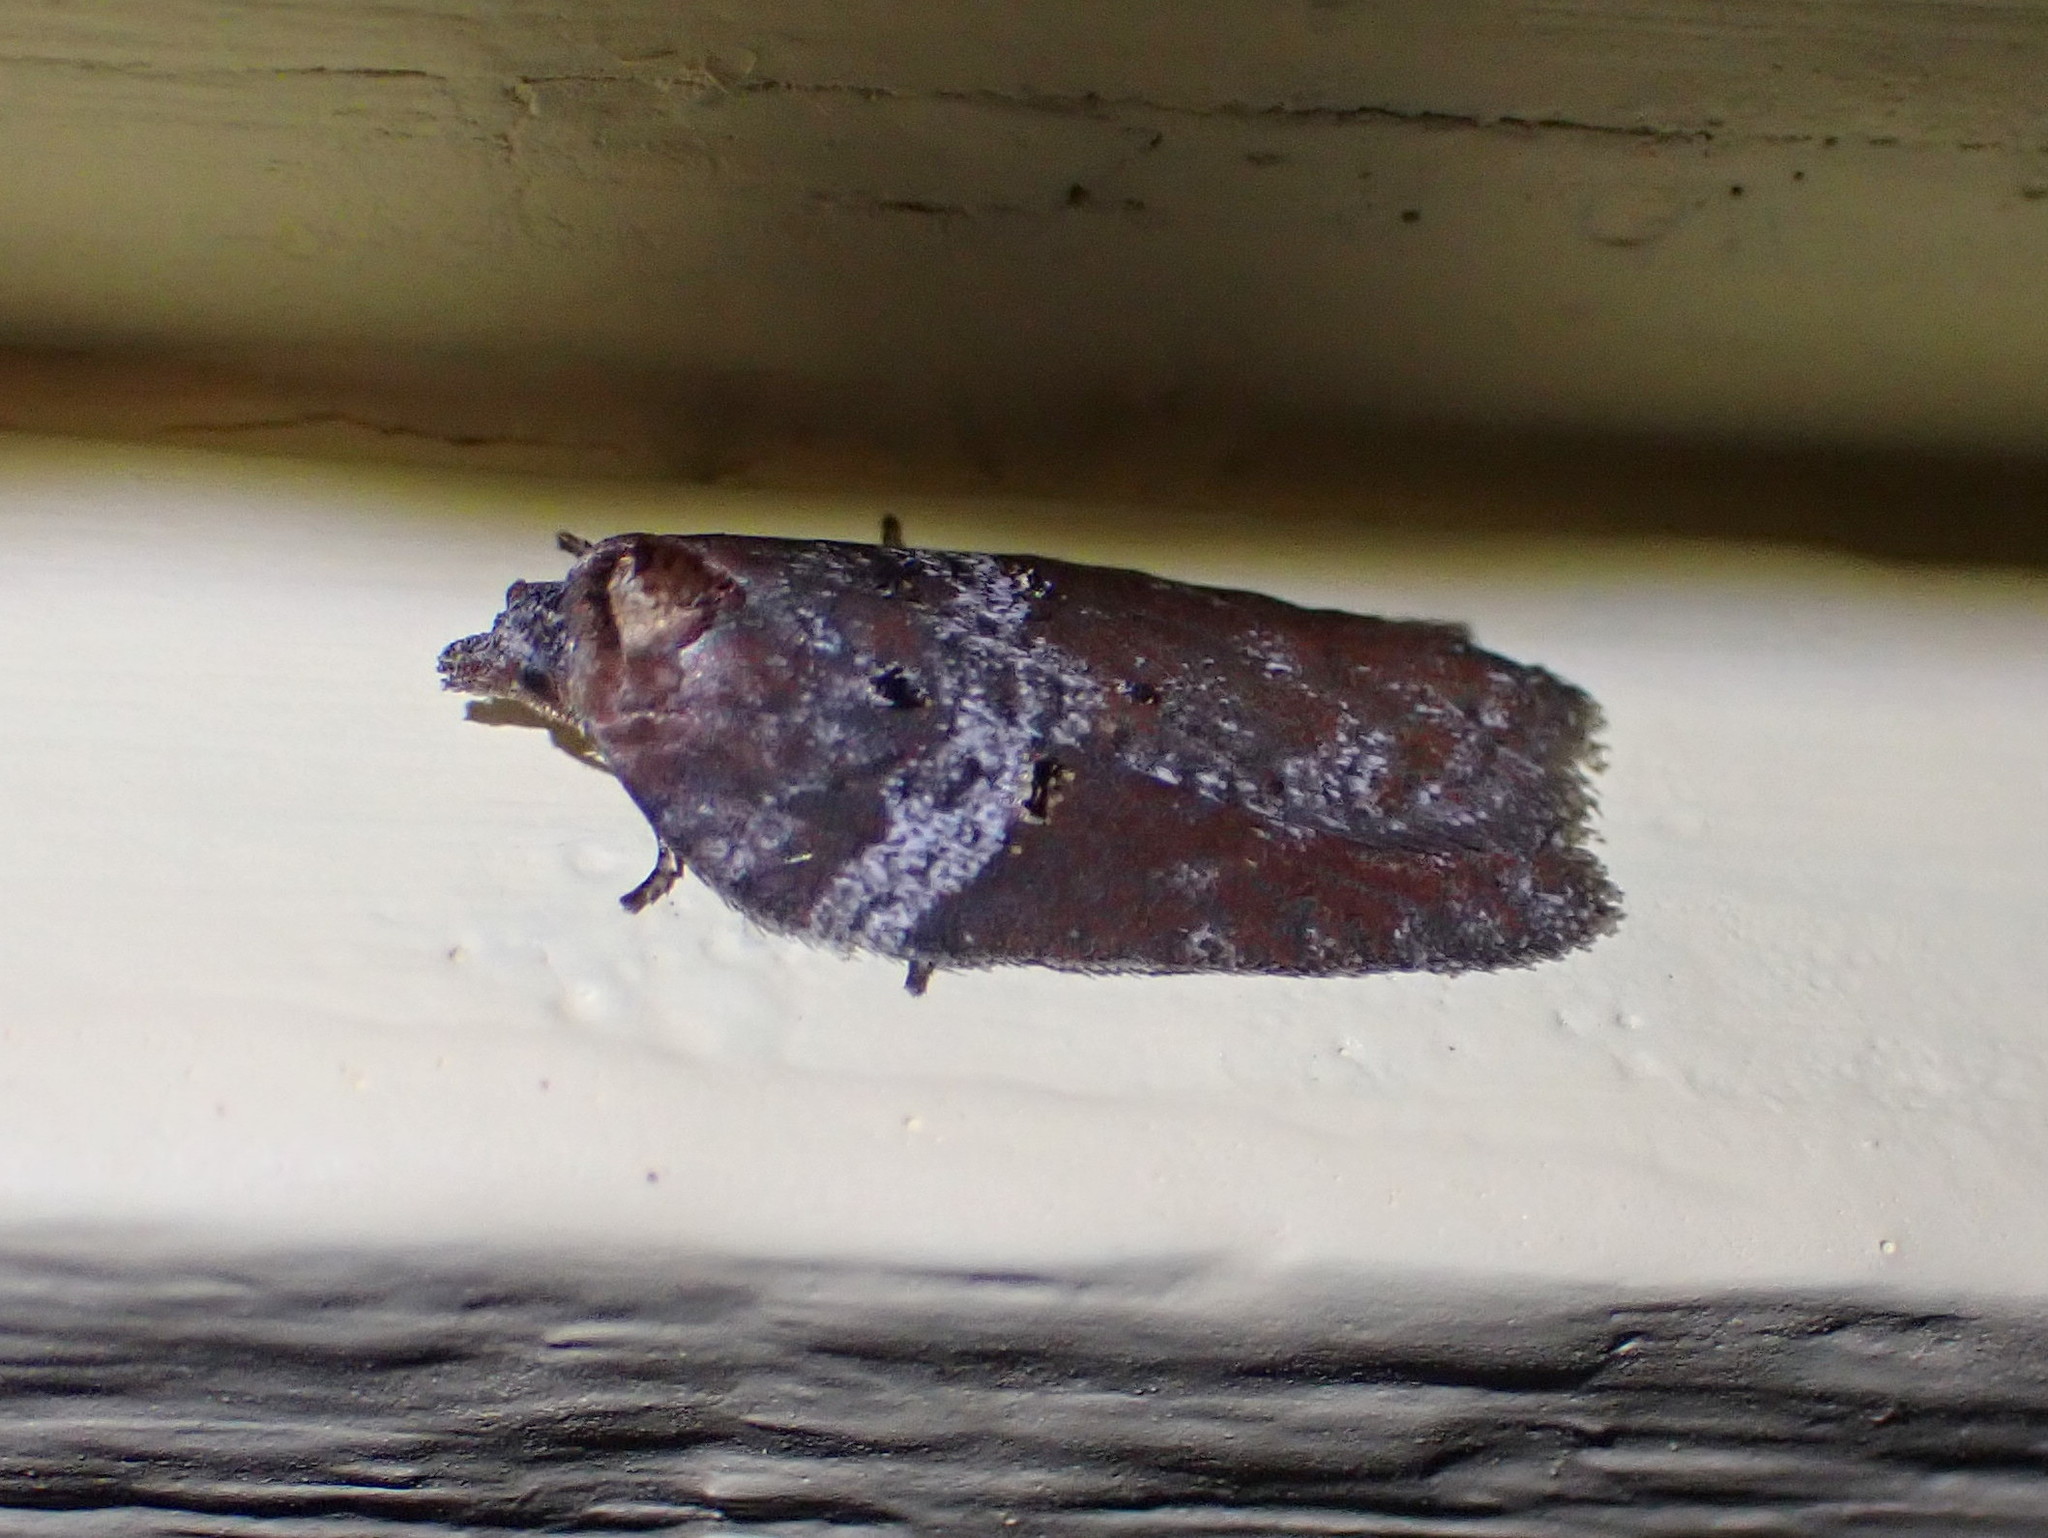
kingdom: Animalia
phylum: Arthropoda
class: Insecta
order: Lepidoptera
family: Tortricidae
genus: Acleris
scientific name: Acleris celiana
